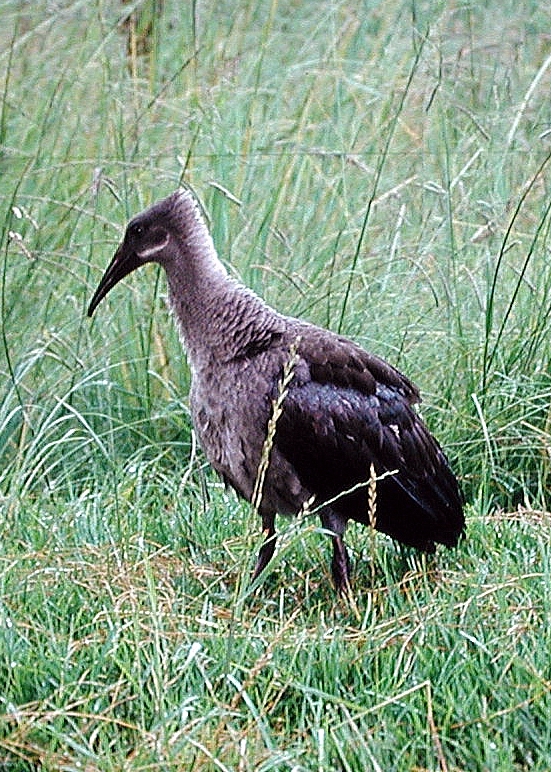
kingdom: Animalia
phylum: Chordata
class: Aves
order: Pelecaniformes
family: Threskiornithidae
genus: Bostrychia
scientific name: Bostrychia hagedash
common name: Hadada ibis
